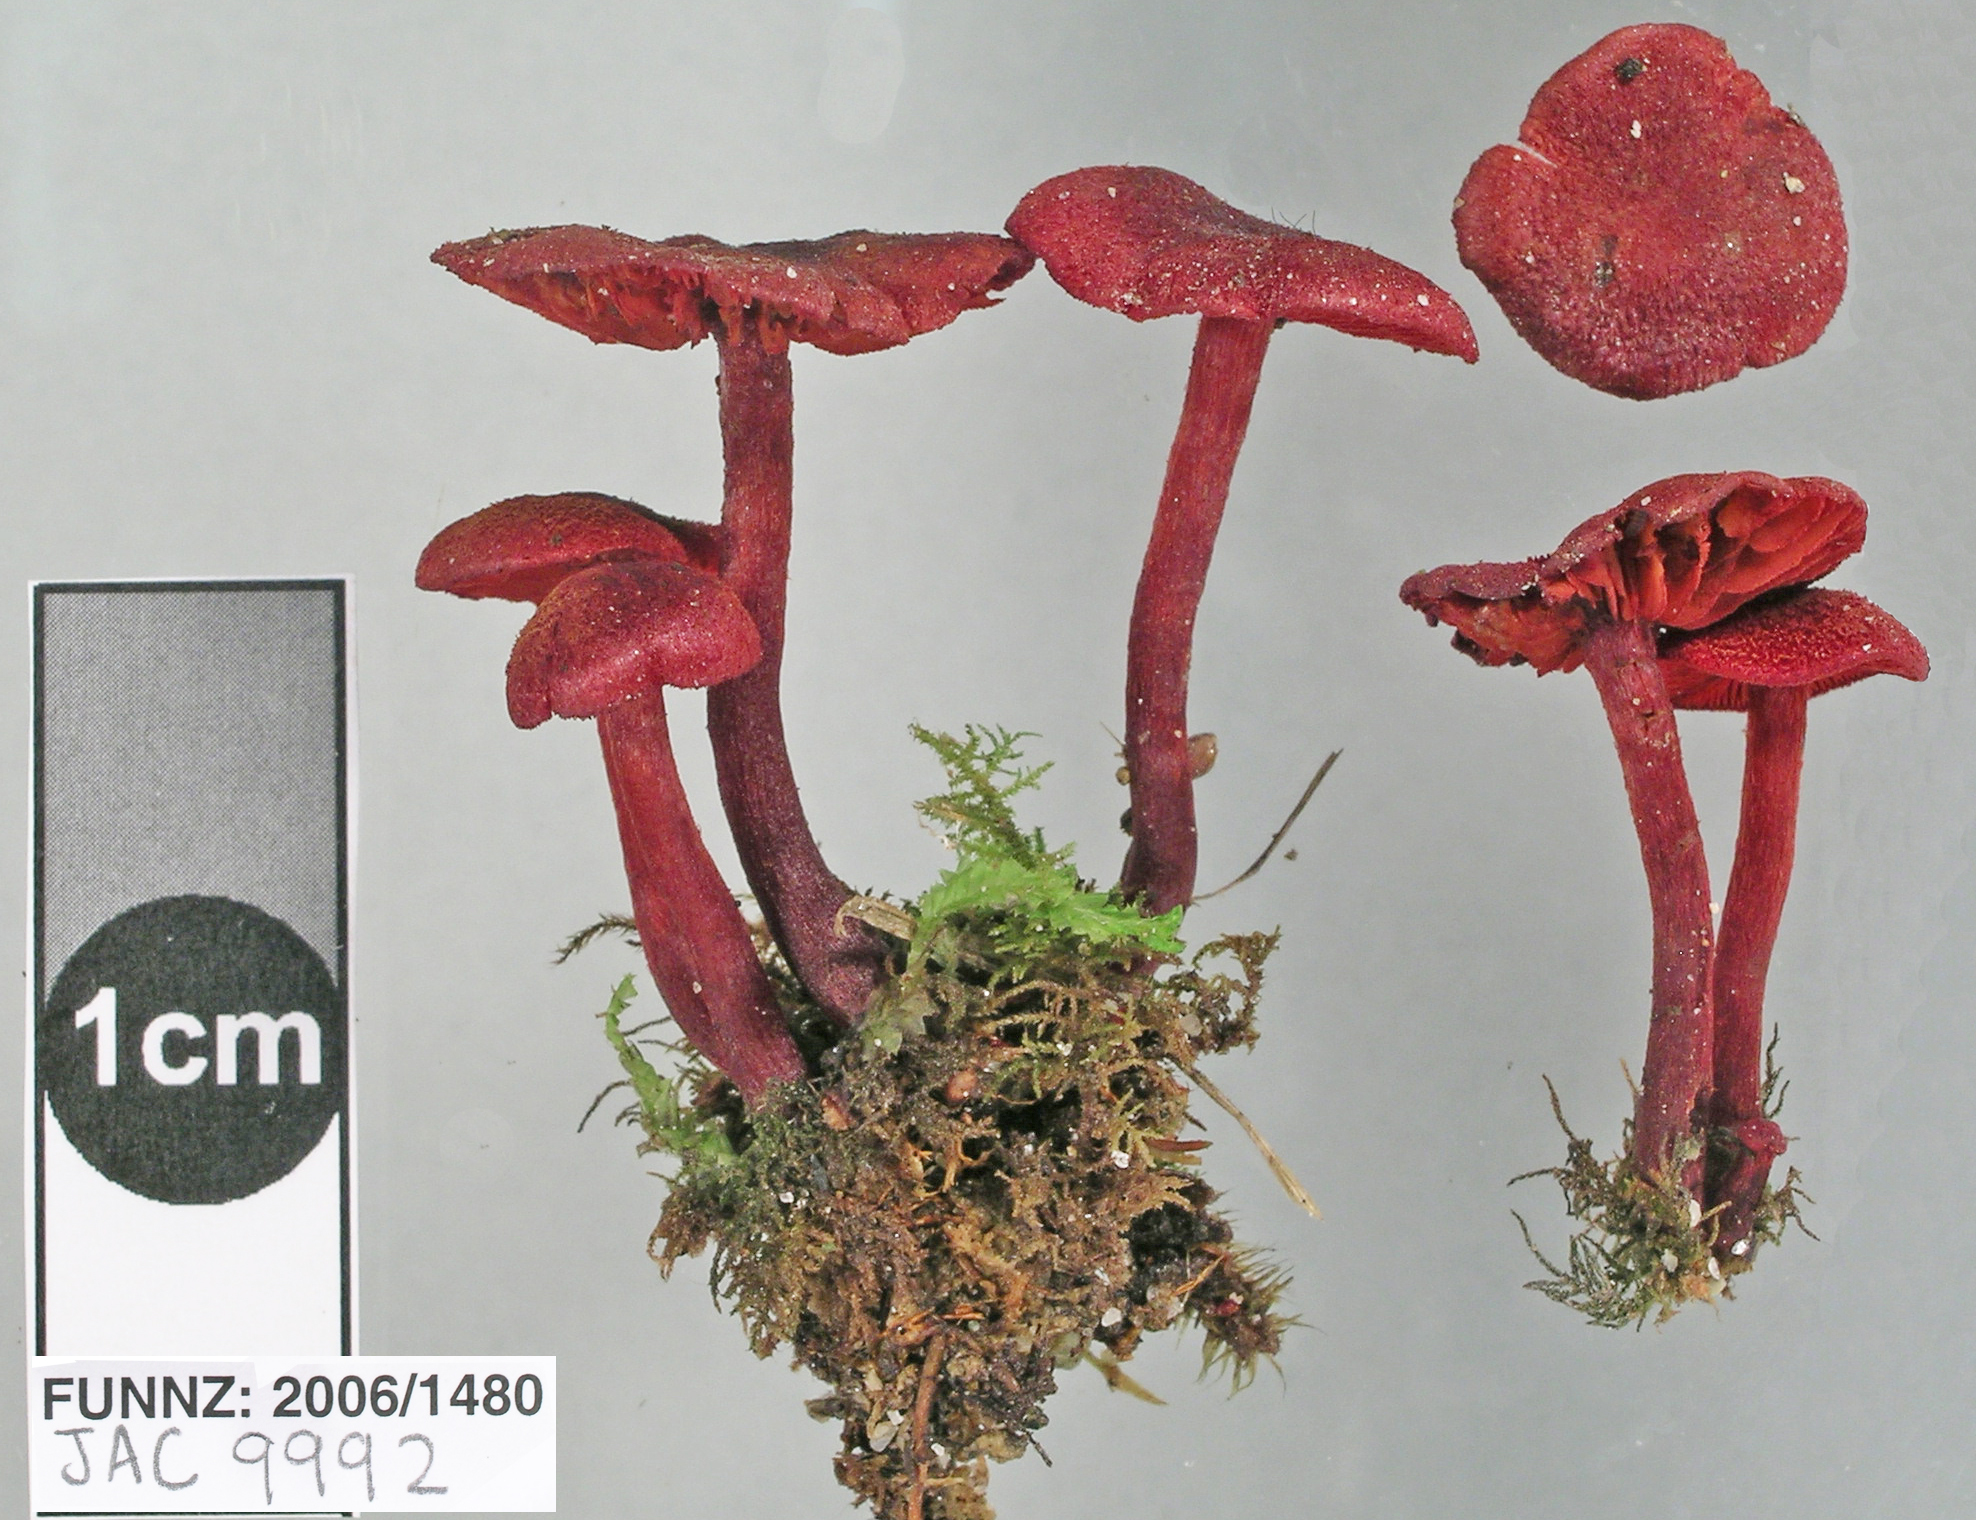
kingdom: Fungi
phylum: Basidiomycota
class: Agaricomycetes
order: Agaricales
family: Cortinariaceae
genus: Cortinarius
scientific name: Cortinarius vinicolor
